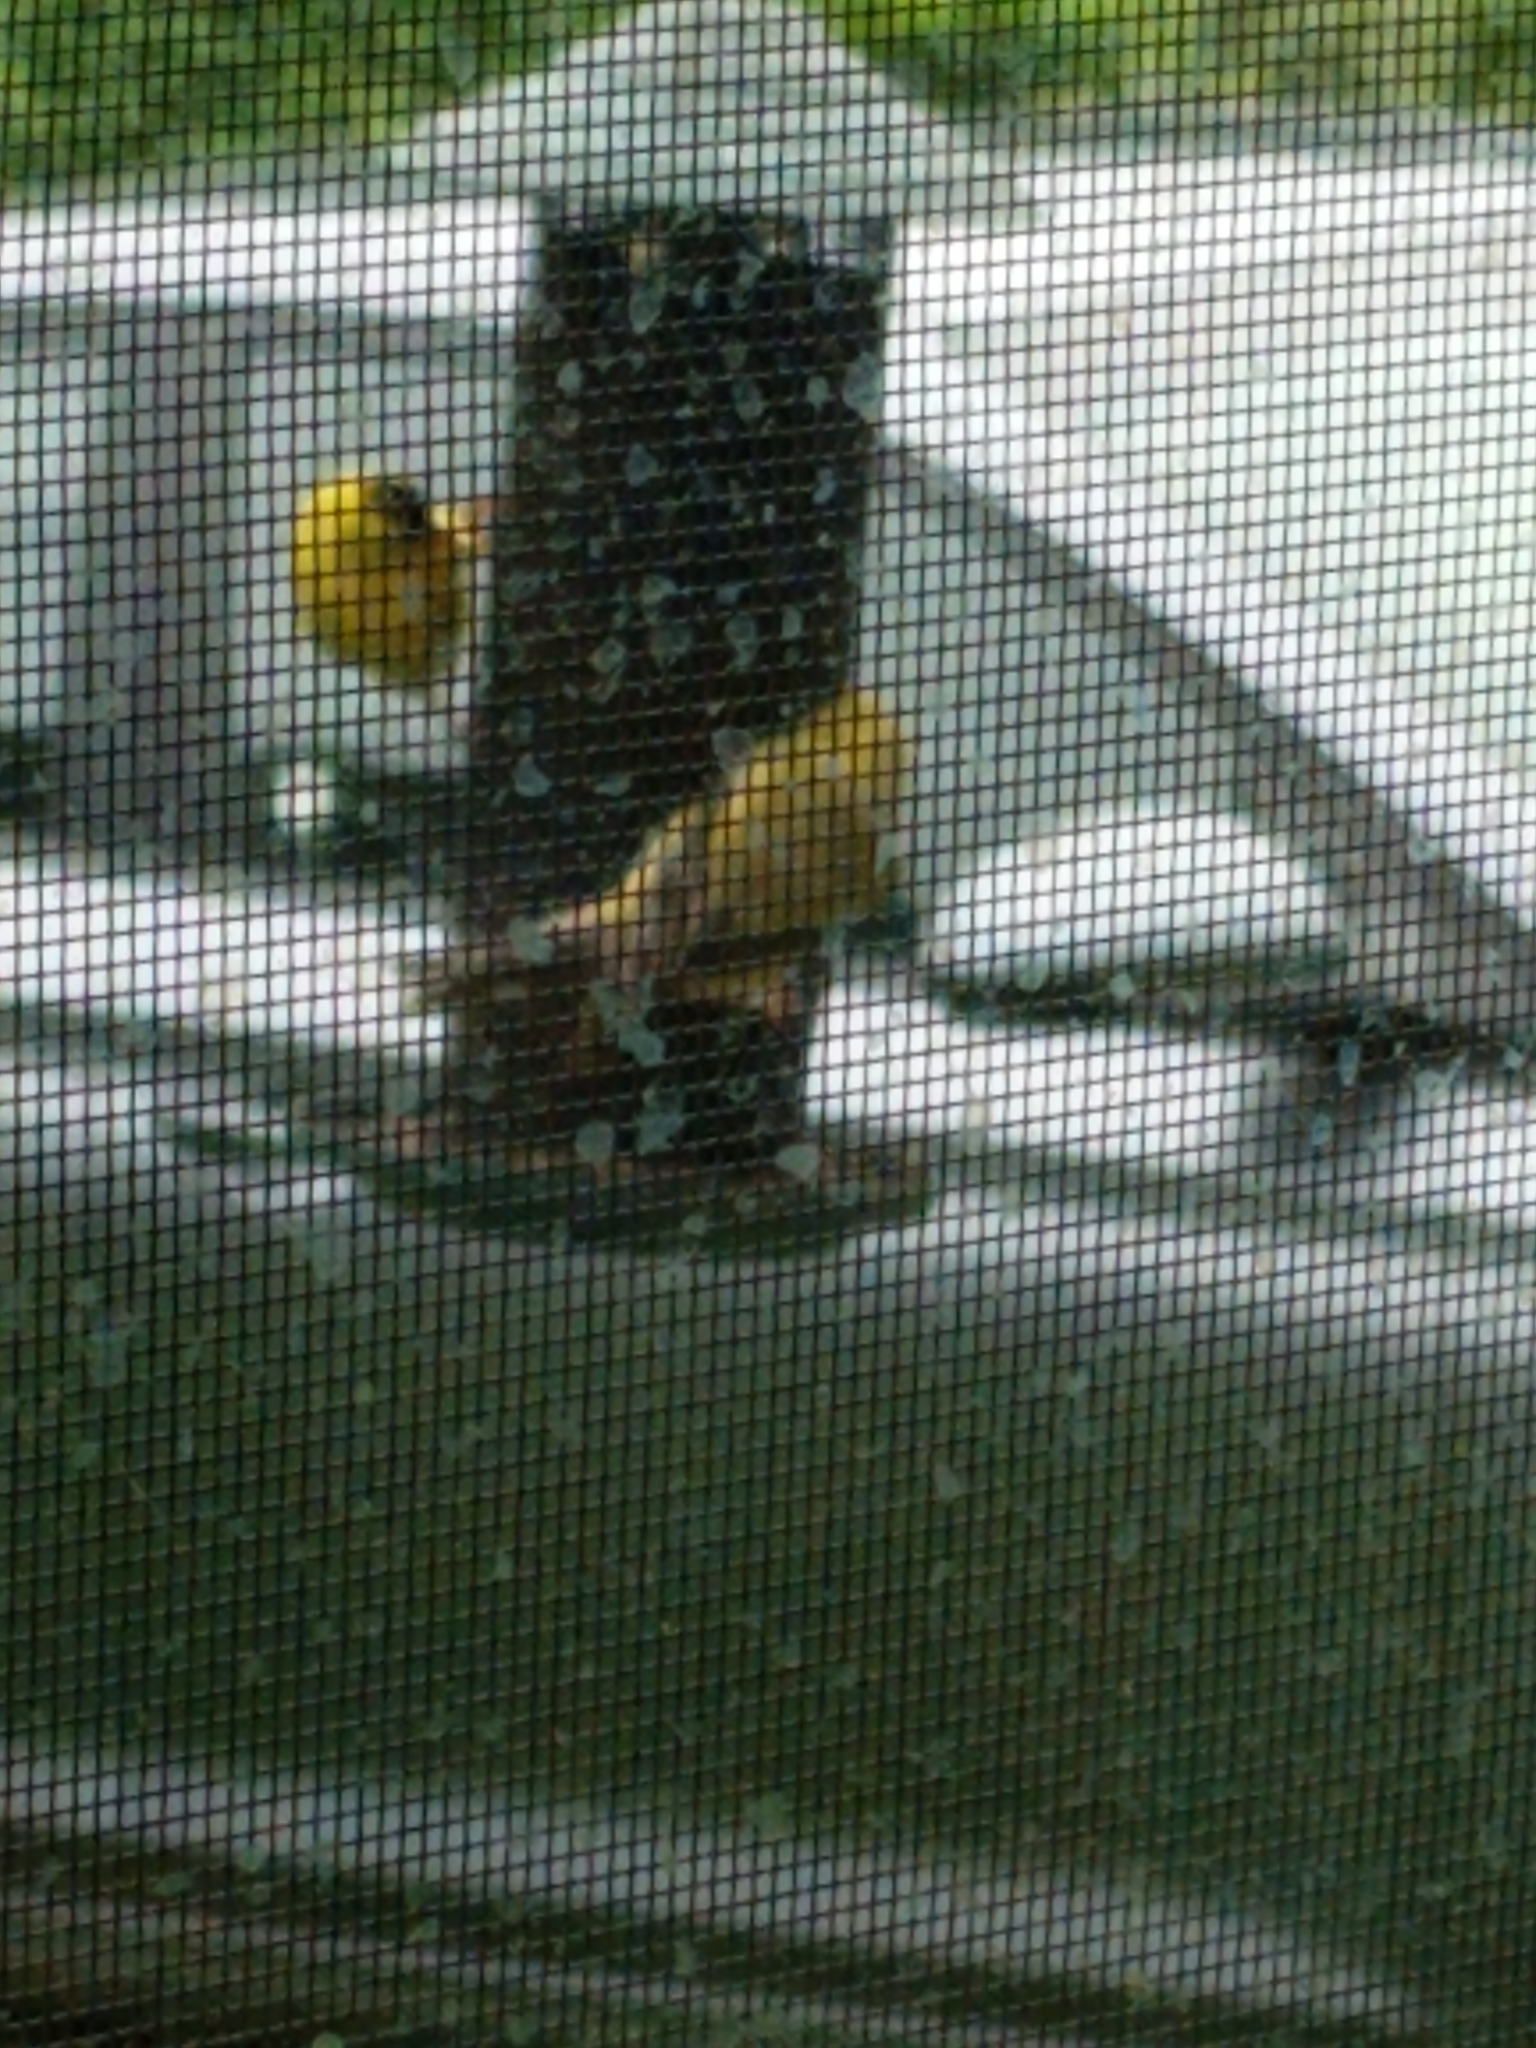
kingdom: Animalia
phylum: Chordata
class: Aves
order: Passeriformes
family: Fringillidae
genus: Spinus
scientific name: Spinus tristis
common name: American goldfinch
